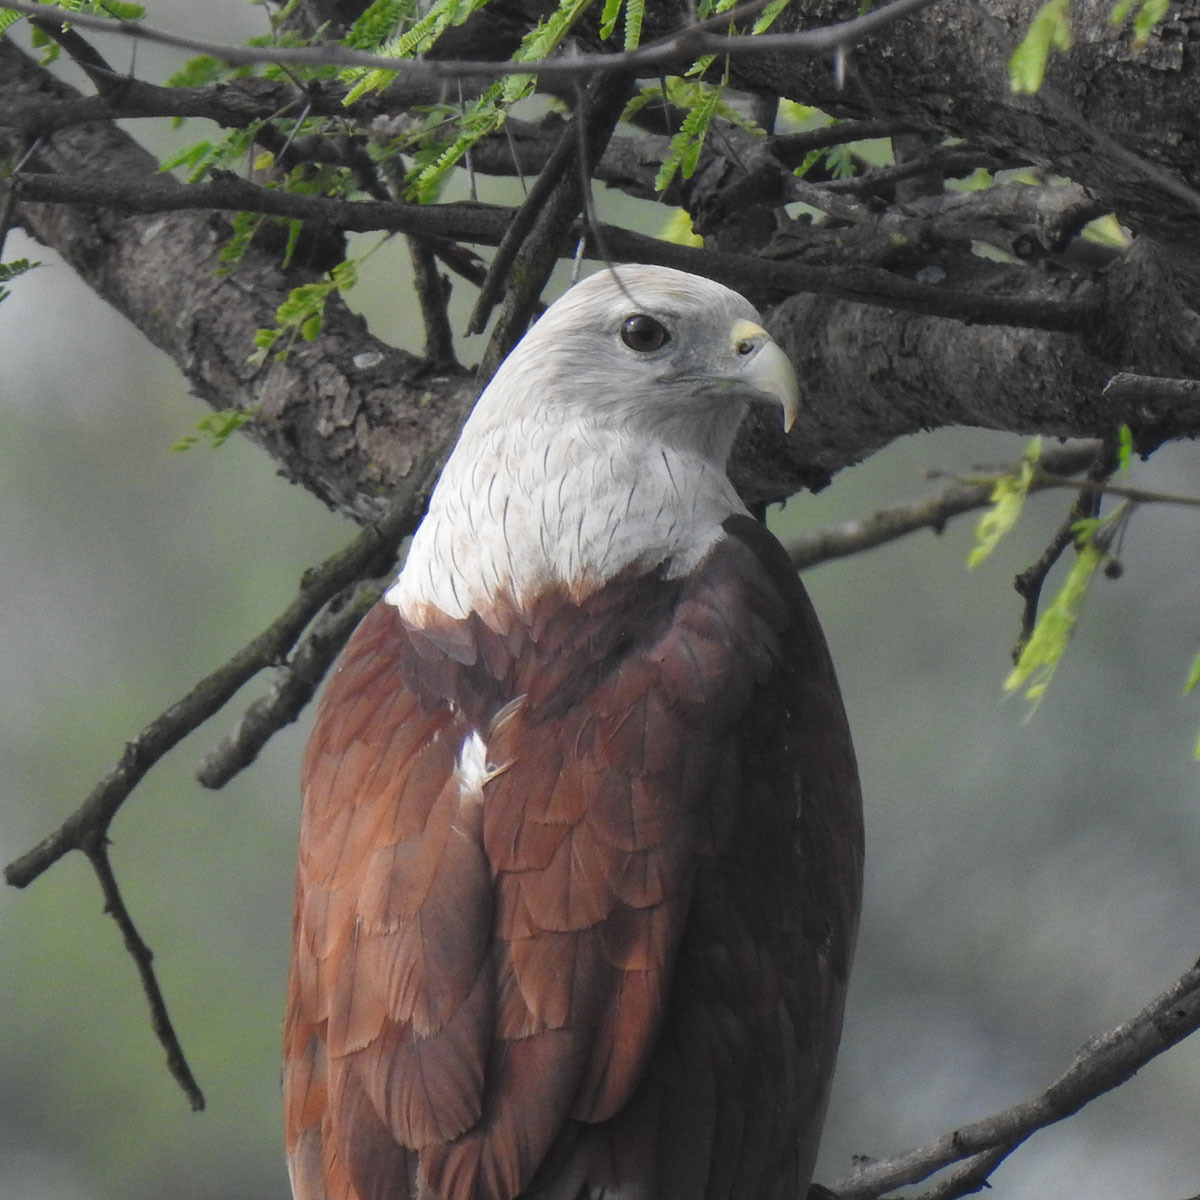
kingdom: Animalia
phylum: Chordata
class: Aves
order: Accipitriformes
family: Accipitridae
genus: Haliastur
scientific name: Haliastur indus
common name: Brahminy kite
